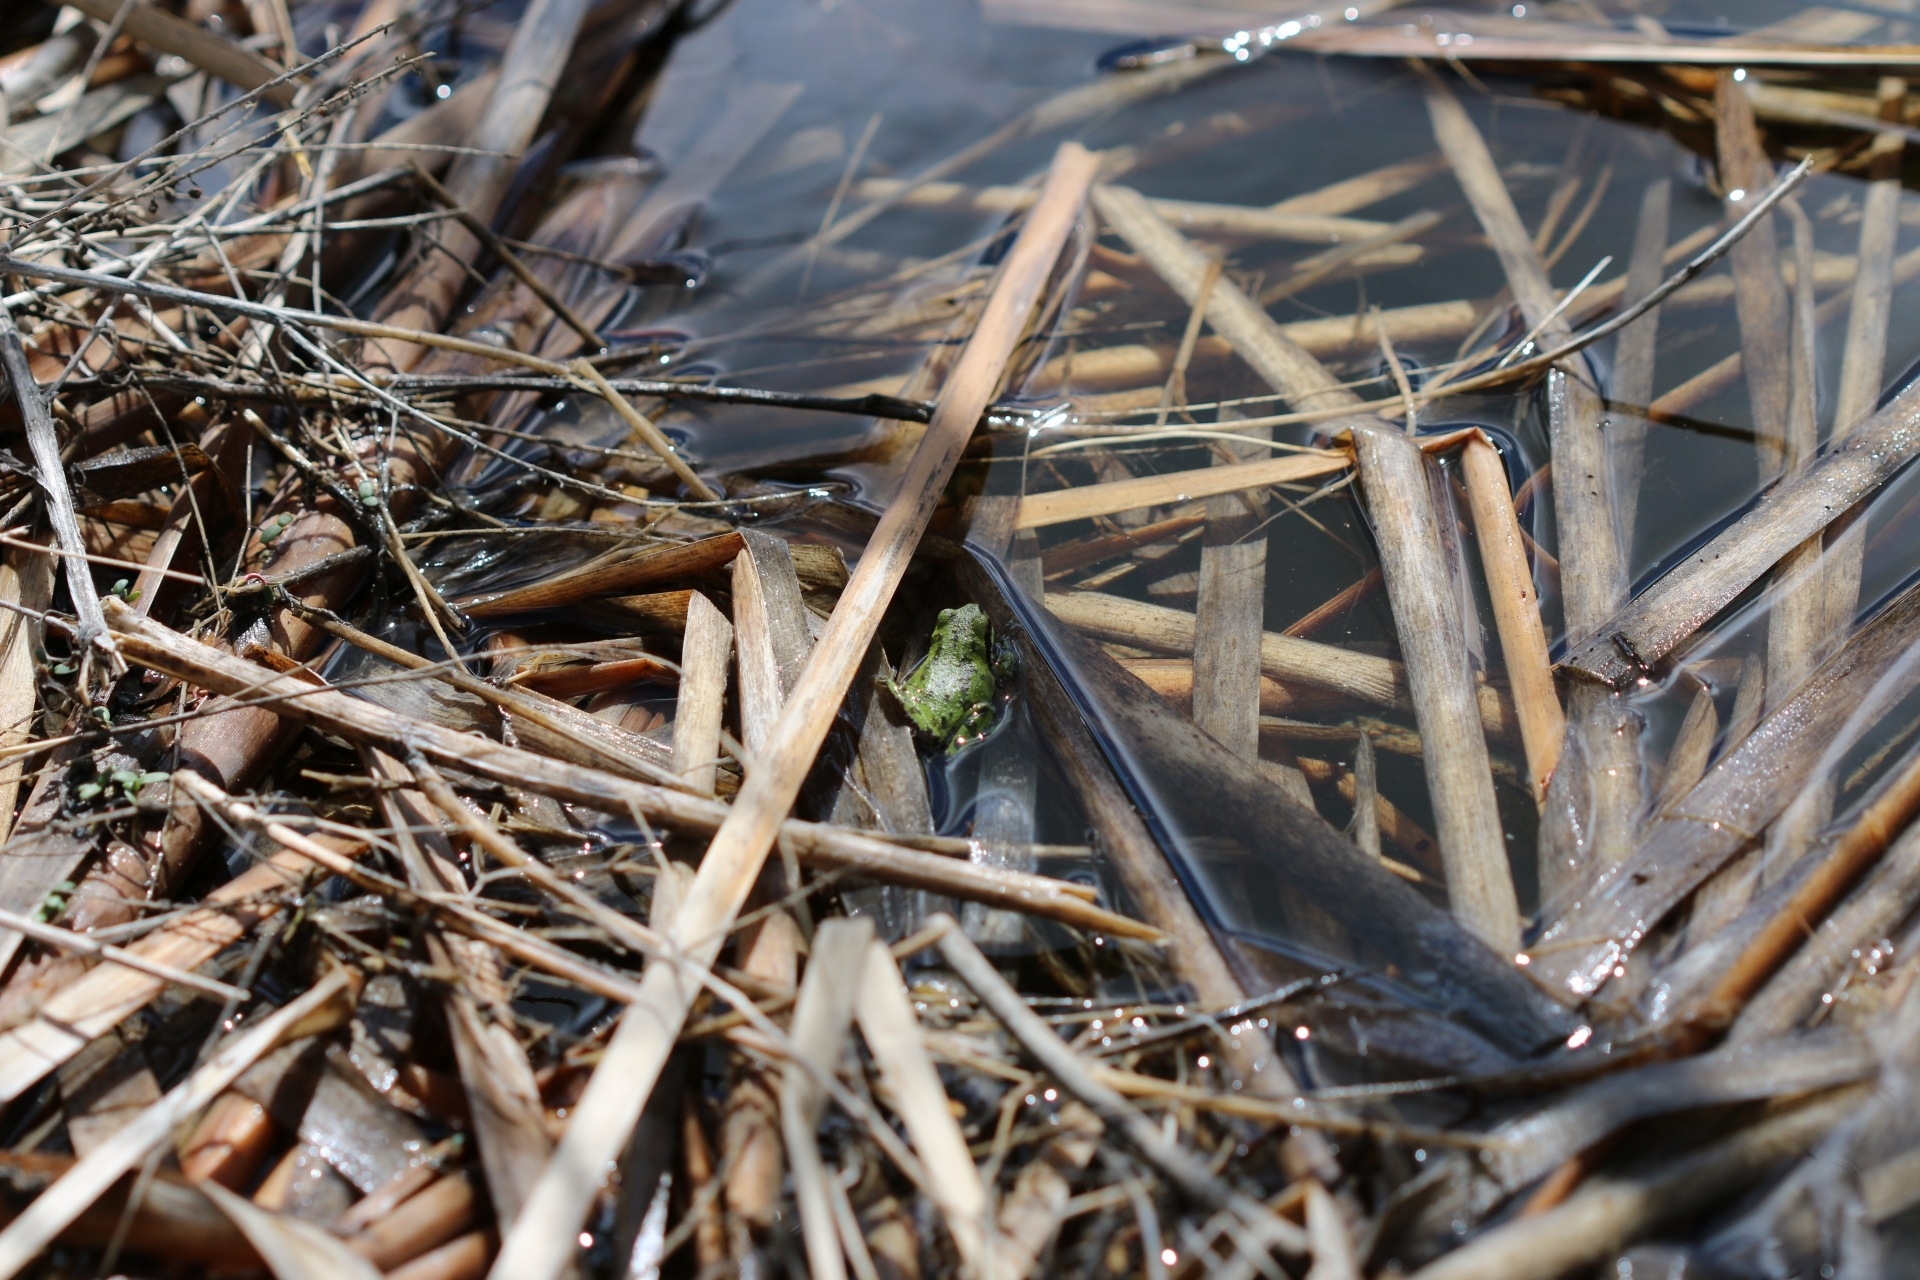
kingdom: Animalia
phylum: Chordata
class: Amphibia
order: Anura
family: Hylidae
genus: Pseudacris
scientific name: Pseudacris regilla
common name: Pacific chorus frog
